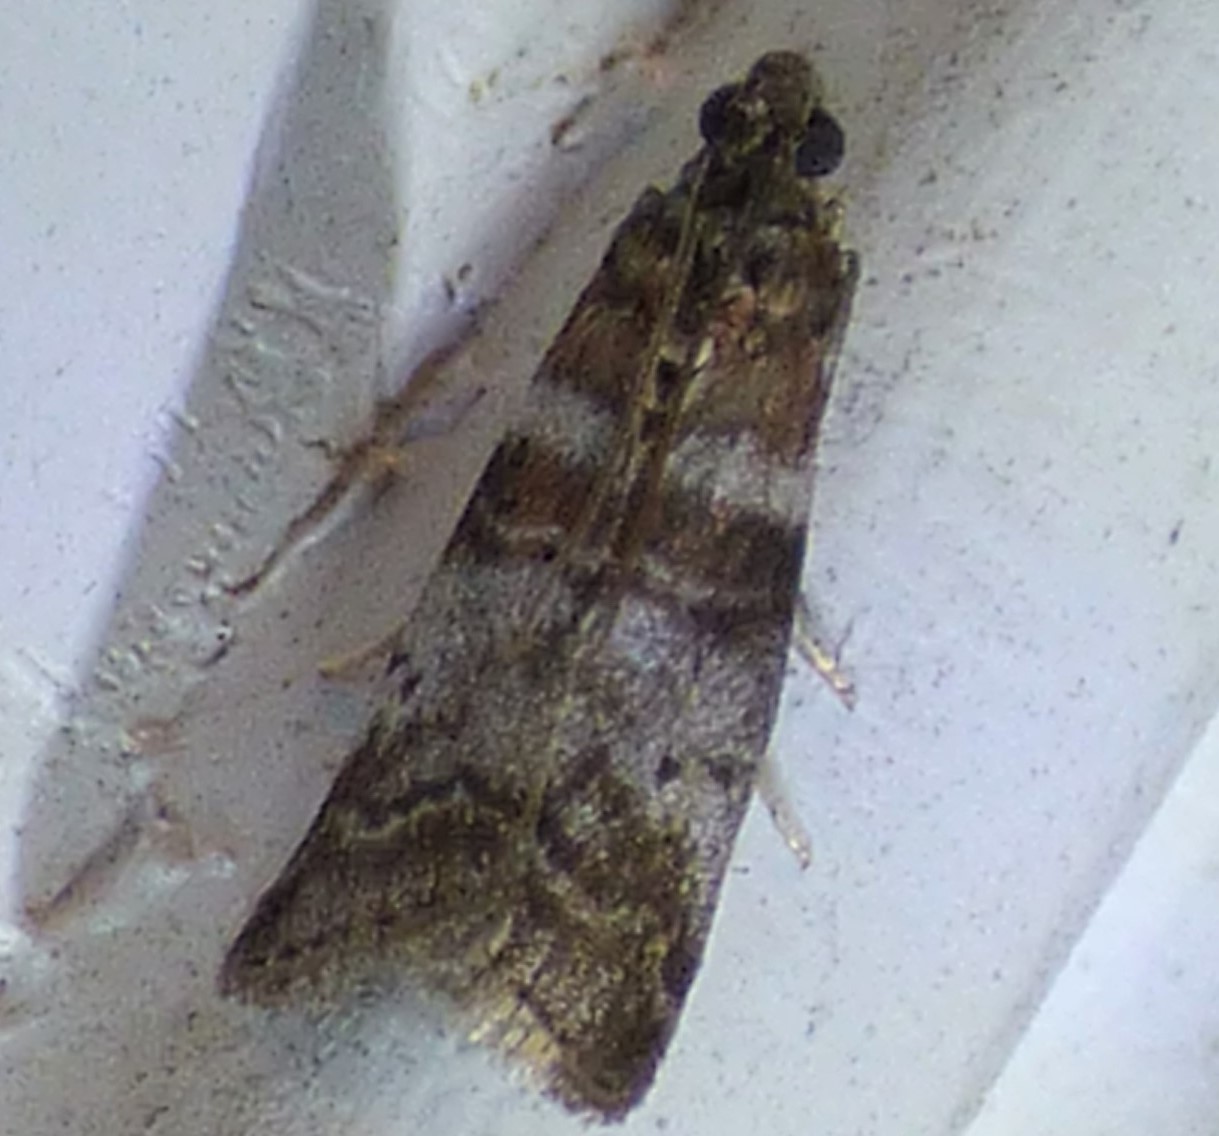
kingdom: Animalia
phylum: Arthropoda
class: Insecta
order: Lepidoptera
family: Pyralidae
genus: Sciota
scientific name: Sciota uvinella
